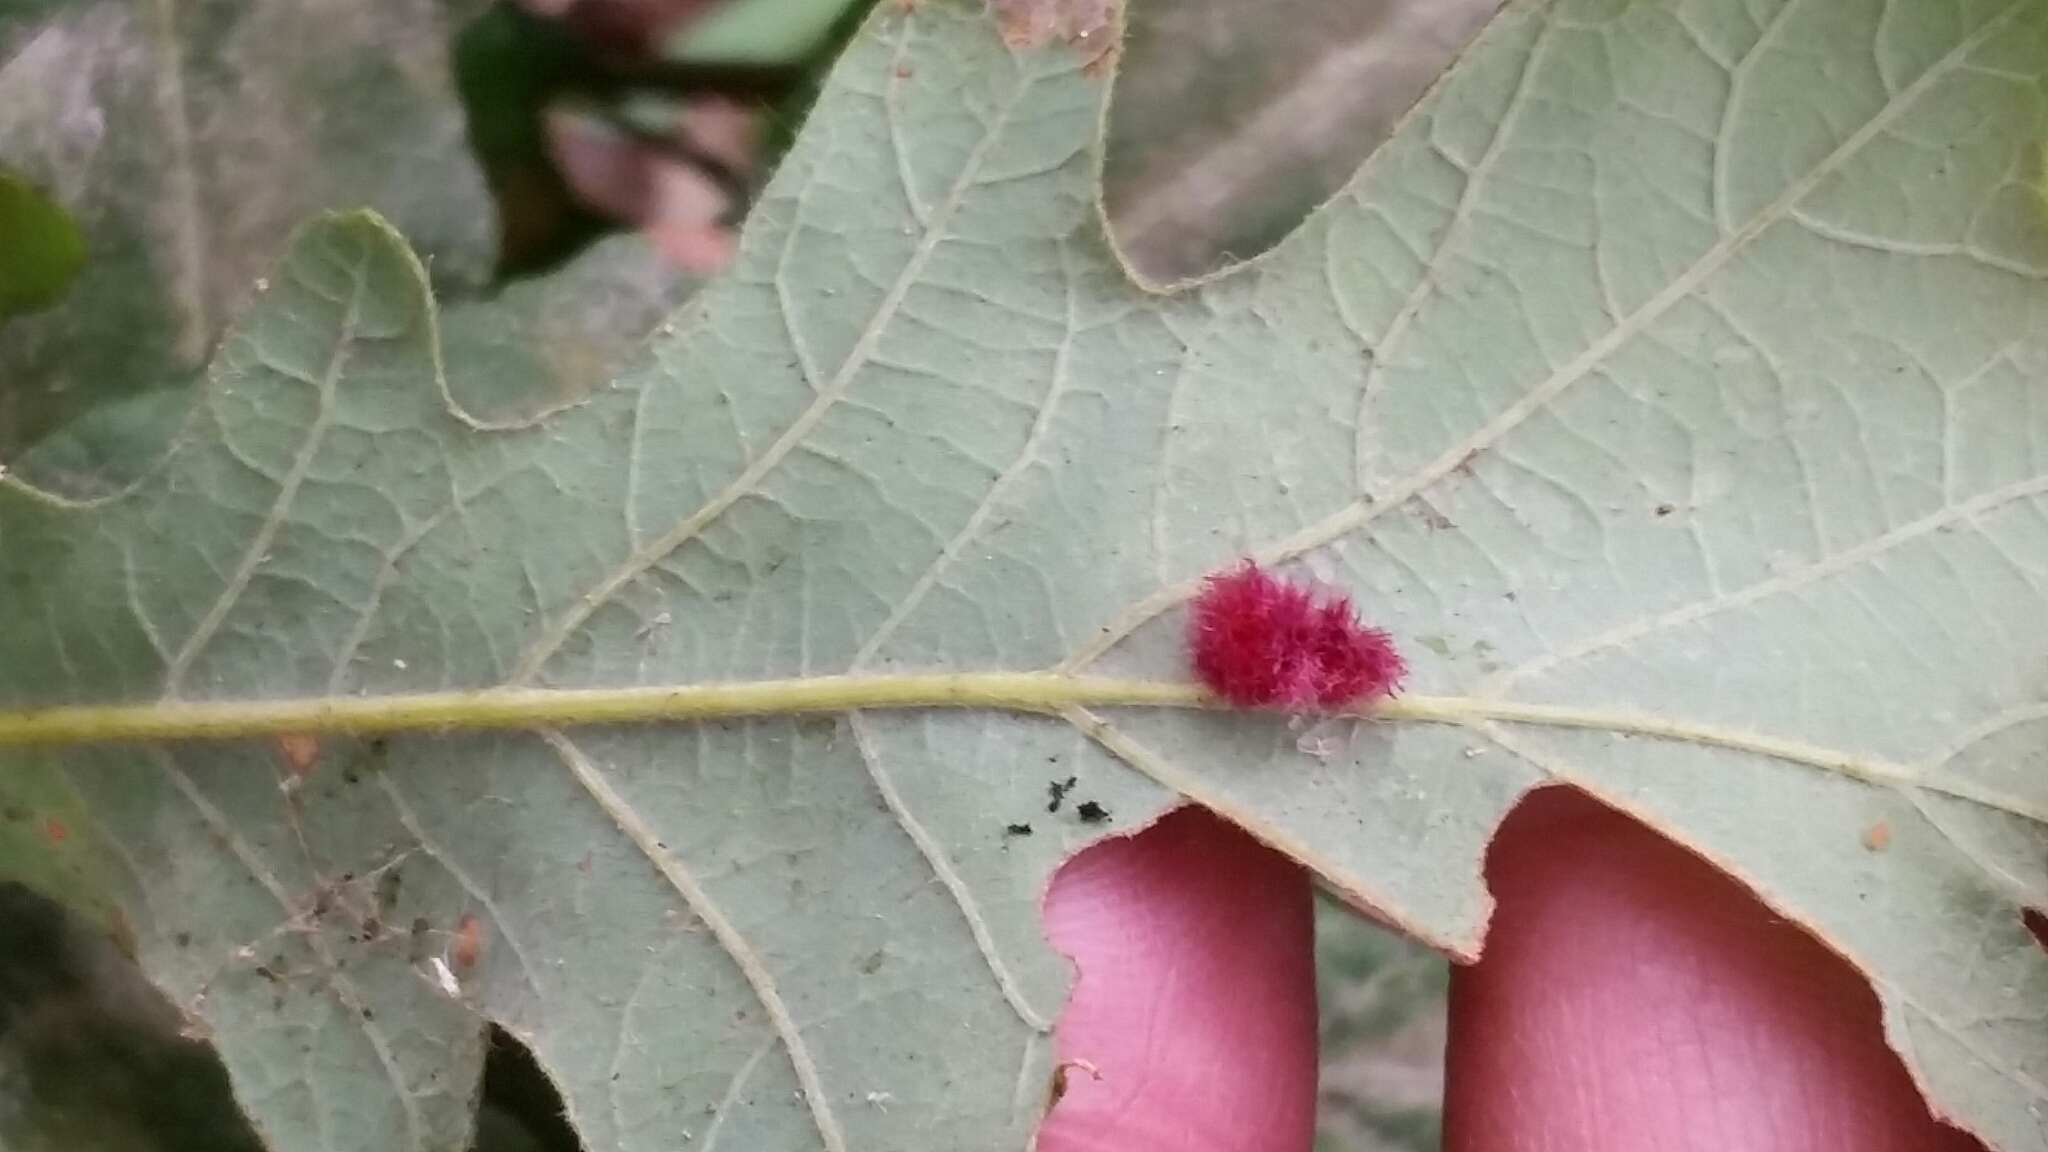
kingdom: Animalia
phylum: Arthropoda
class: Insecta
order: Hymenoptera
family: Cynipidae
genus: Andricus
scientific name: Andricus Druon ignotum
